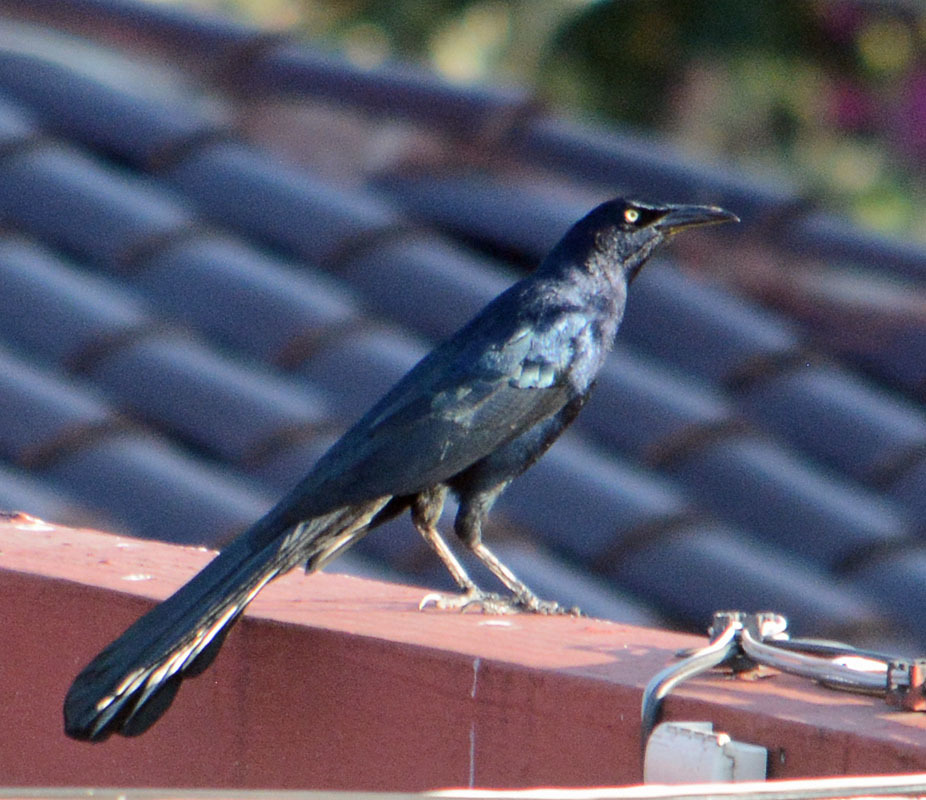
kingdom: Animalia
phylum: Chordata
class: Aves
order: Passeriformes
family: Icteridae
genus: Quiscalus
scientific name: Quiscalus mexicanus
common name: Great-tailed grackle
